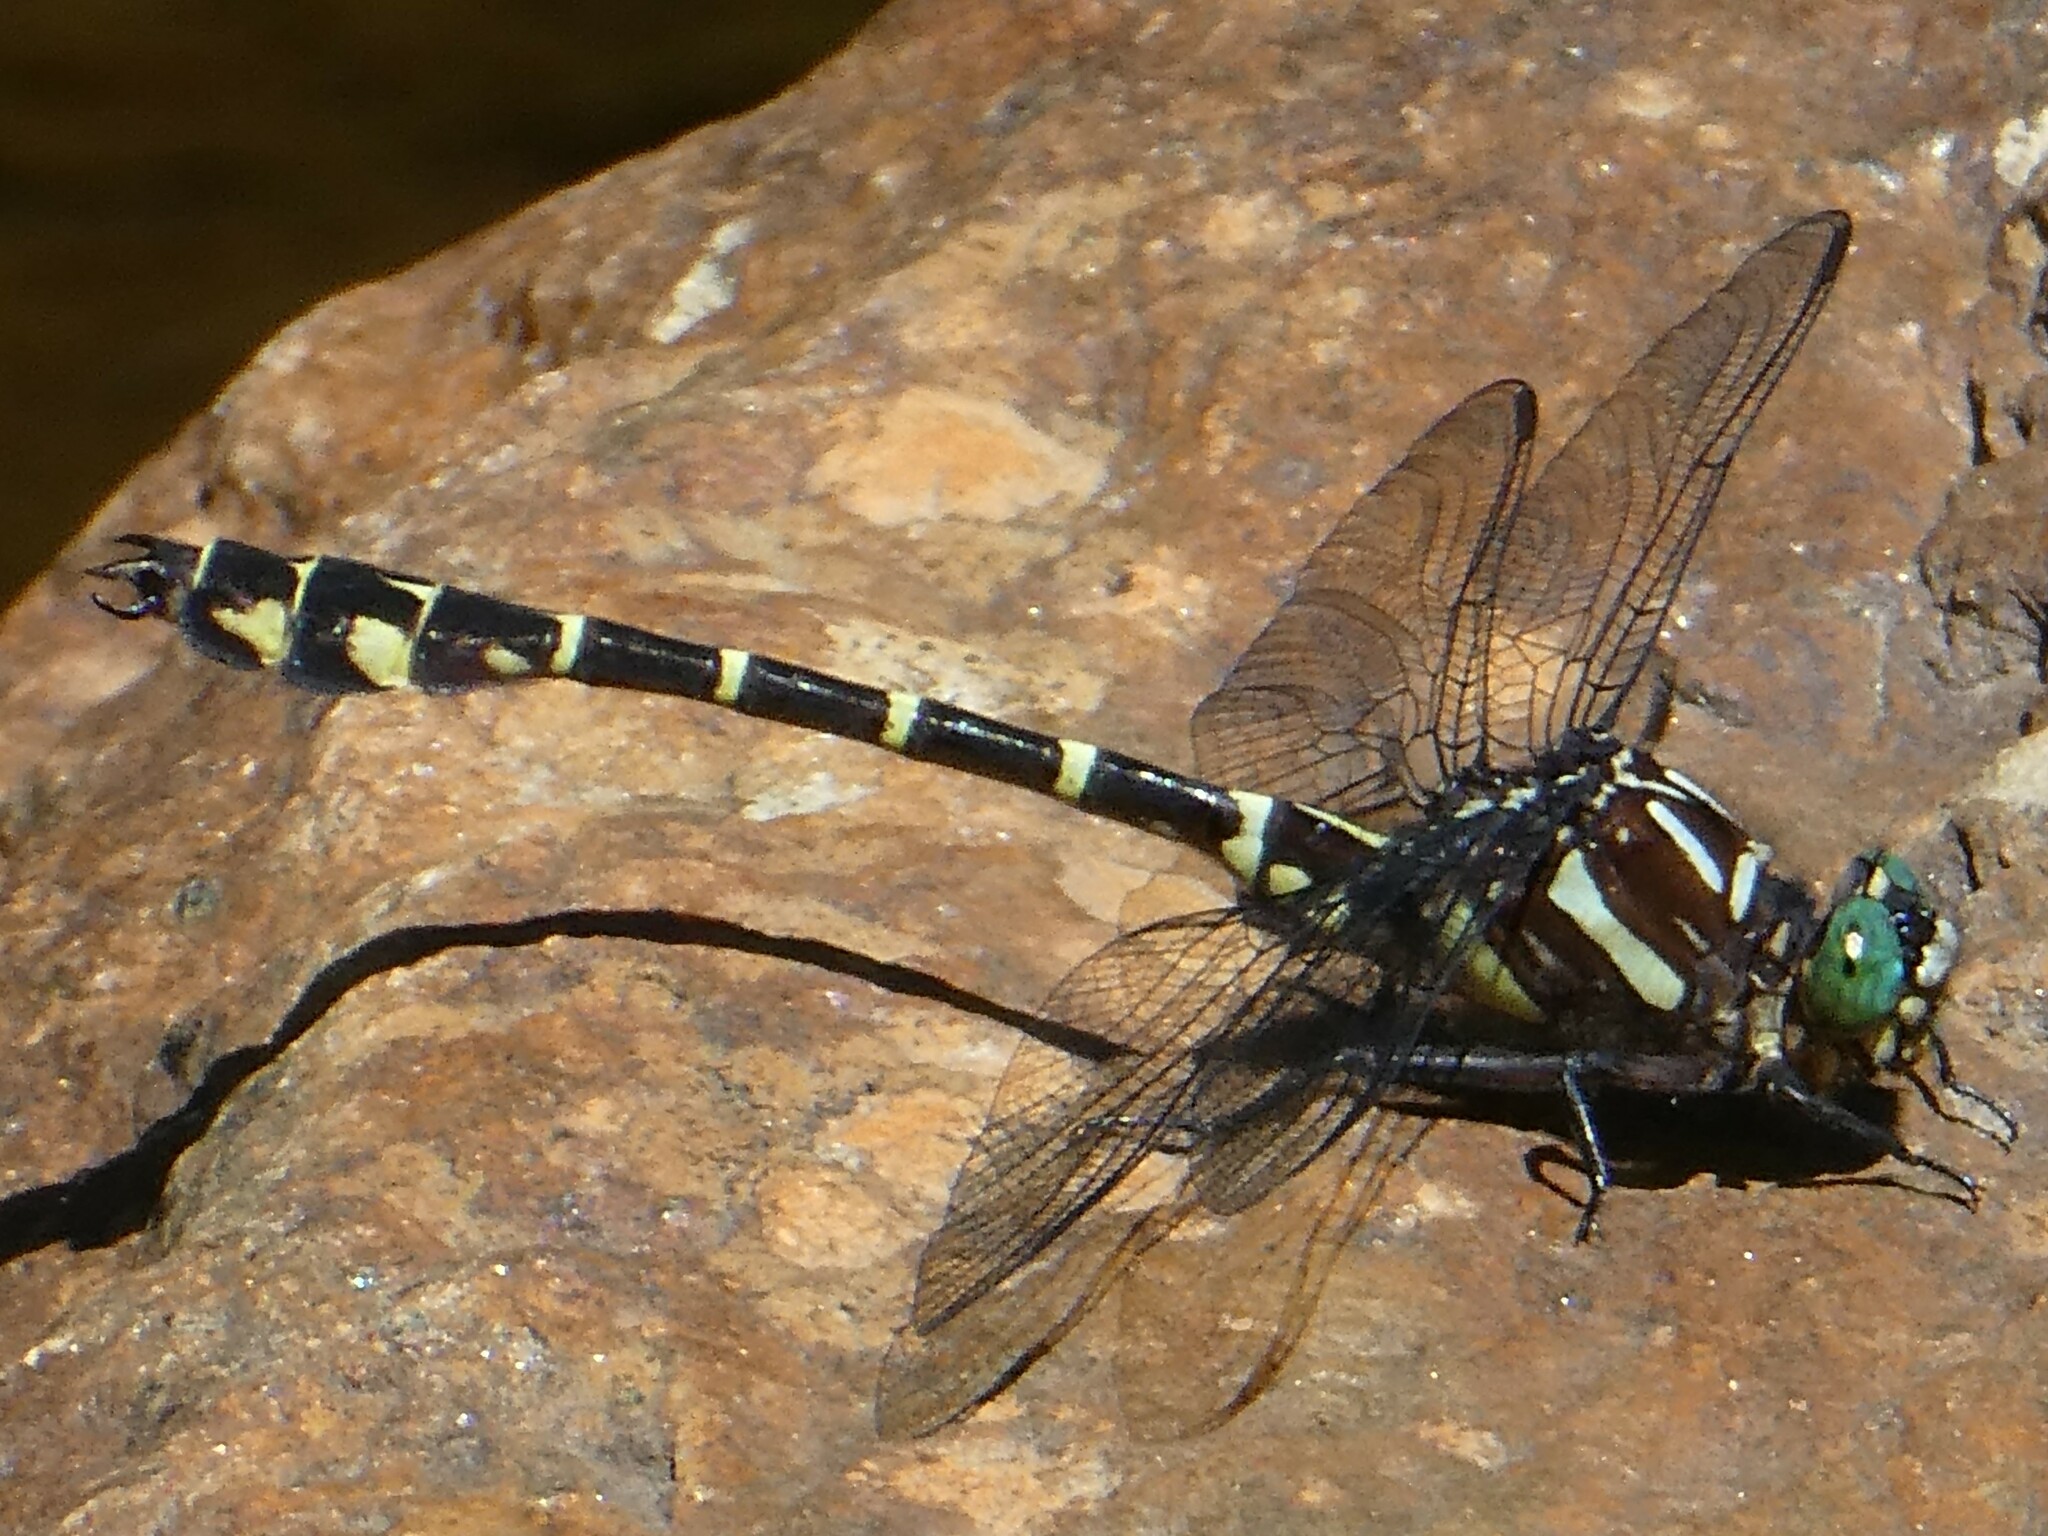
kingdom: Animalia
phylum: Arthropoda
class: Insecta
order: Odonata
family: Gomphidae
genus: Stylurus
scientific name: Stylurus scudderi
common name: Zebra clubtail
